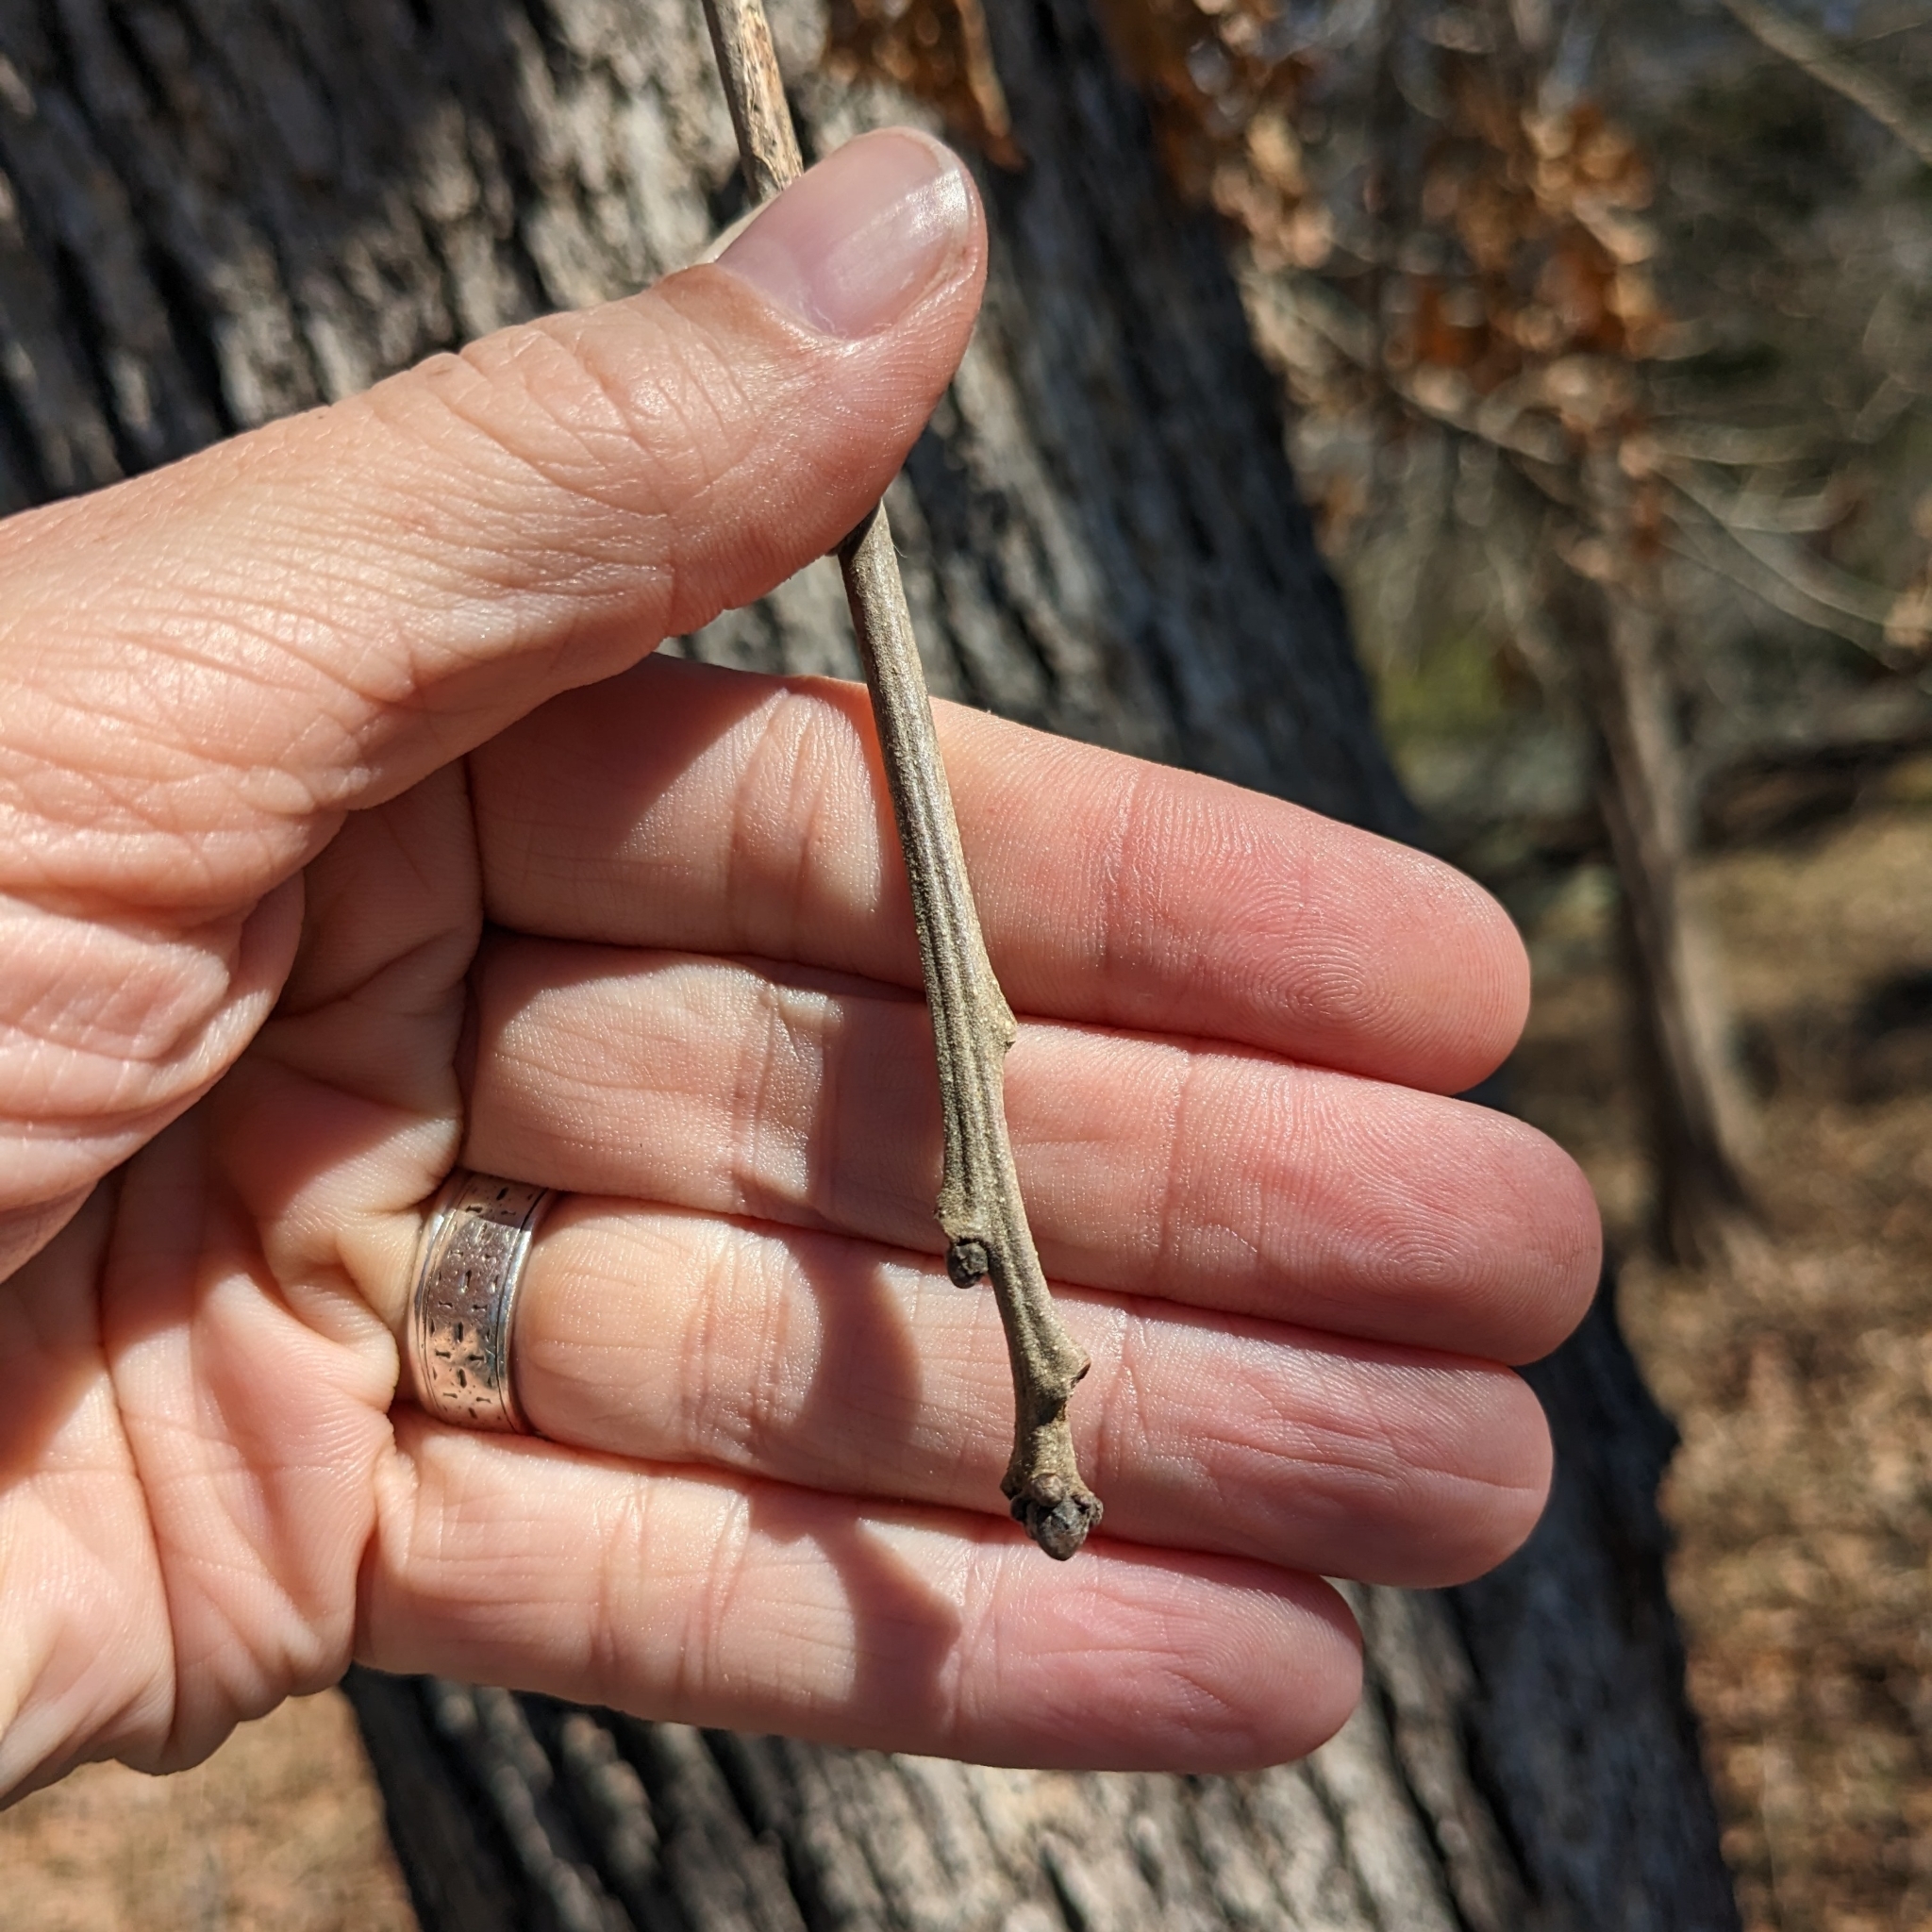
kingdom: Plantae
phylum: Tracheophyta
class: Magnoliopsida
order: Fagales
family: Fagaceae
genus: Quercus
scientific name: Quercus stellata
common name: Post oak
